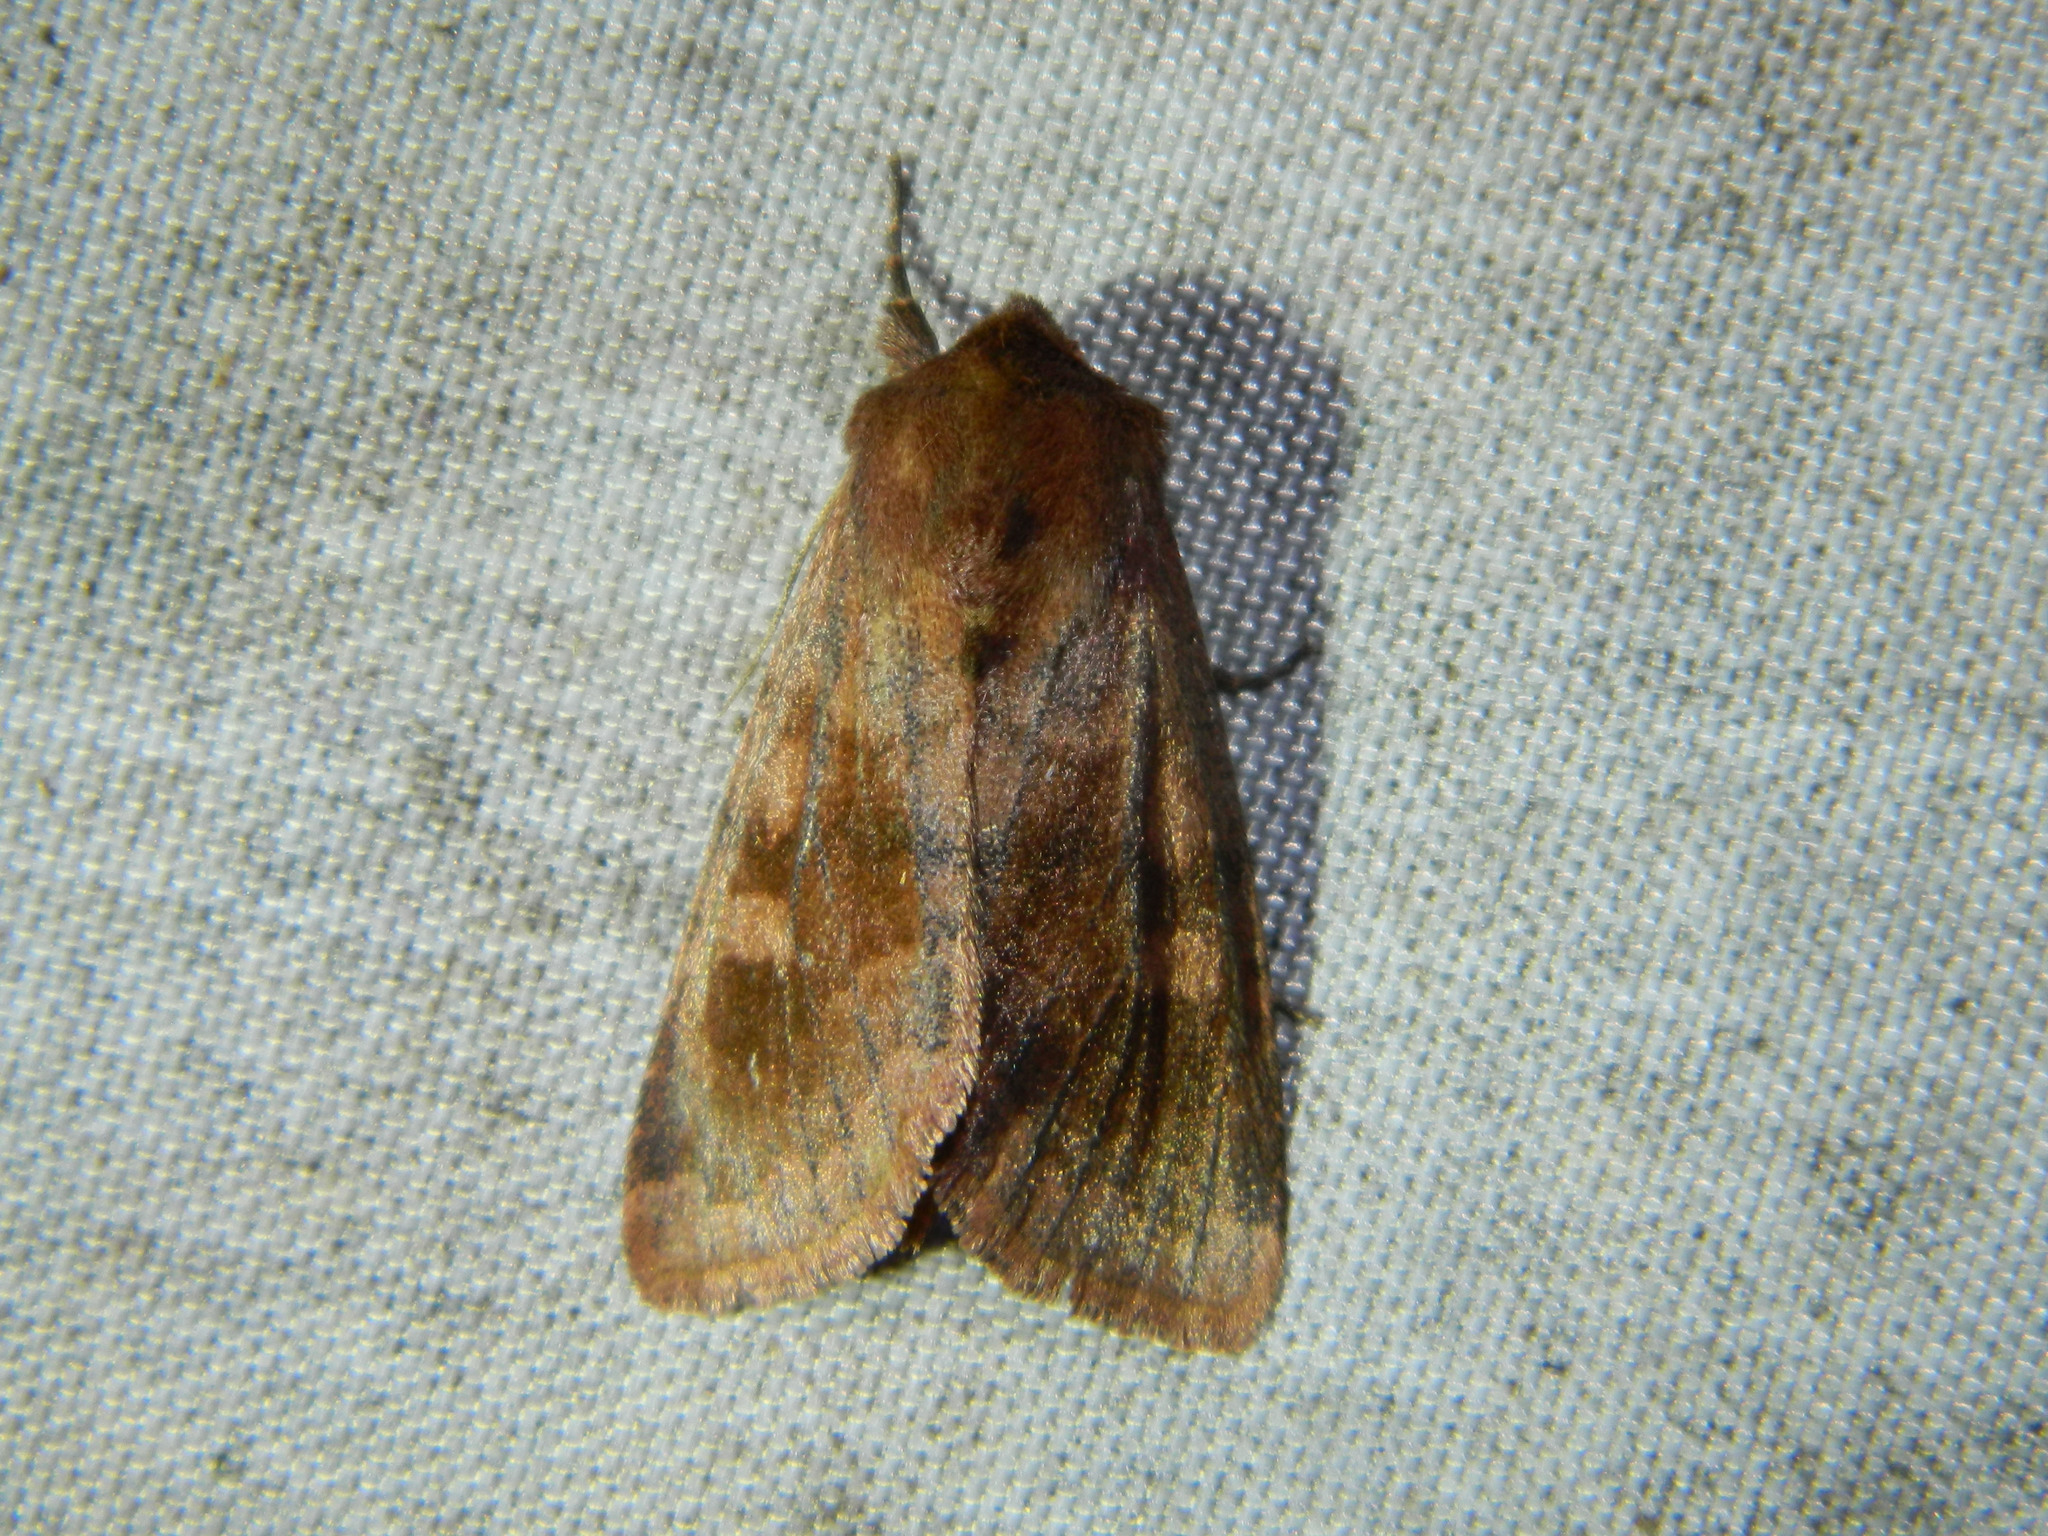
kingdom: Animalia
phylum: Arthropoda
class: Insecta
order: Lepidoptera
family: Noctuidae
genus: Nephelodes
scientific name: Nephelodes minians
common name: Bronzed cutworm
